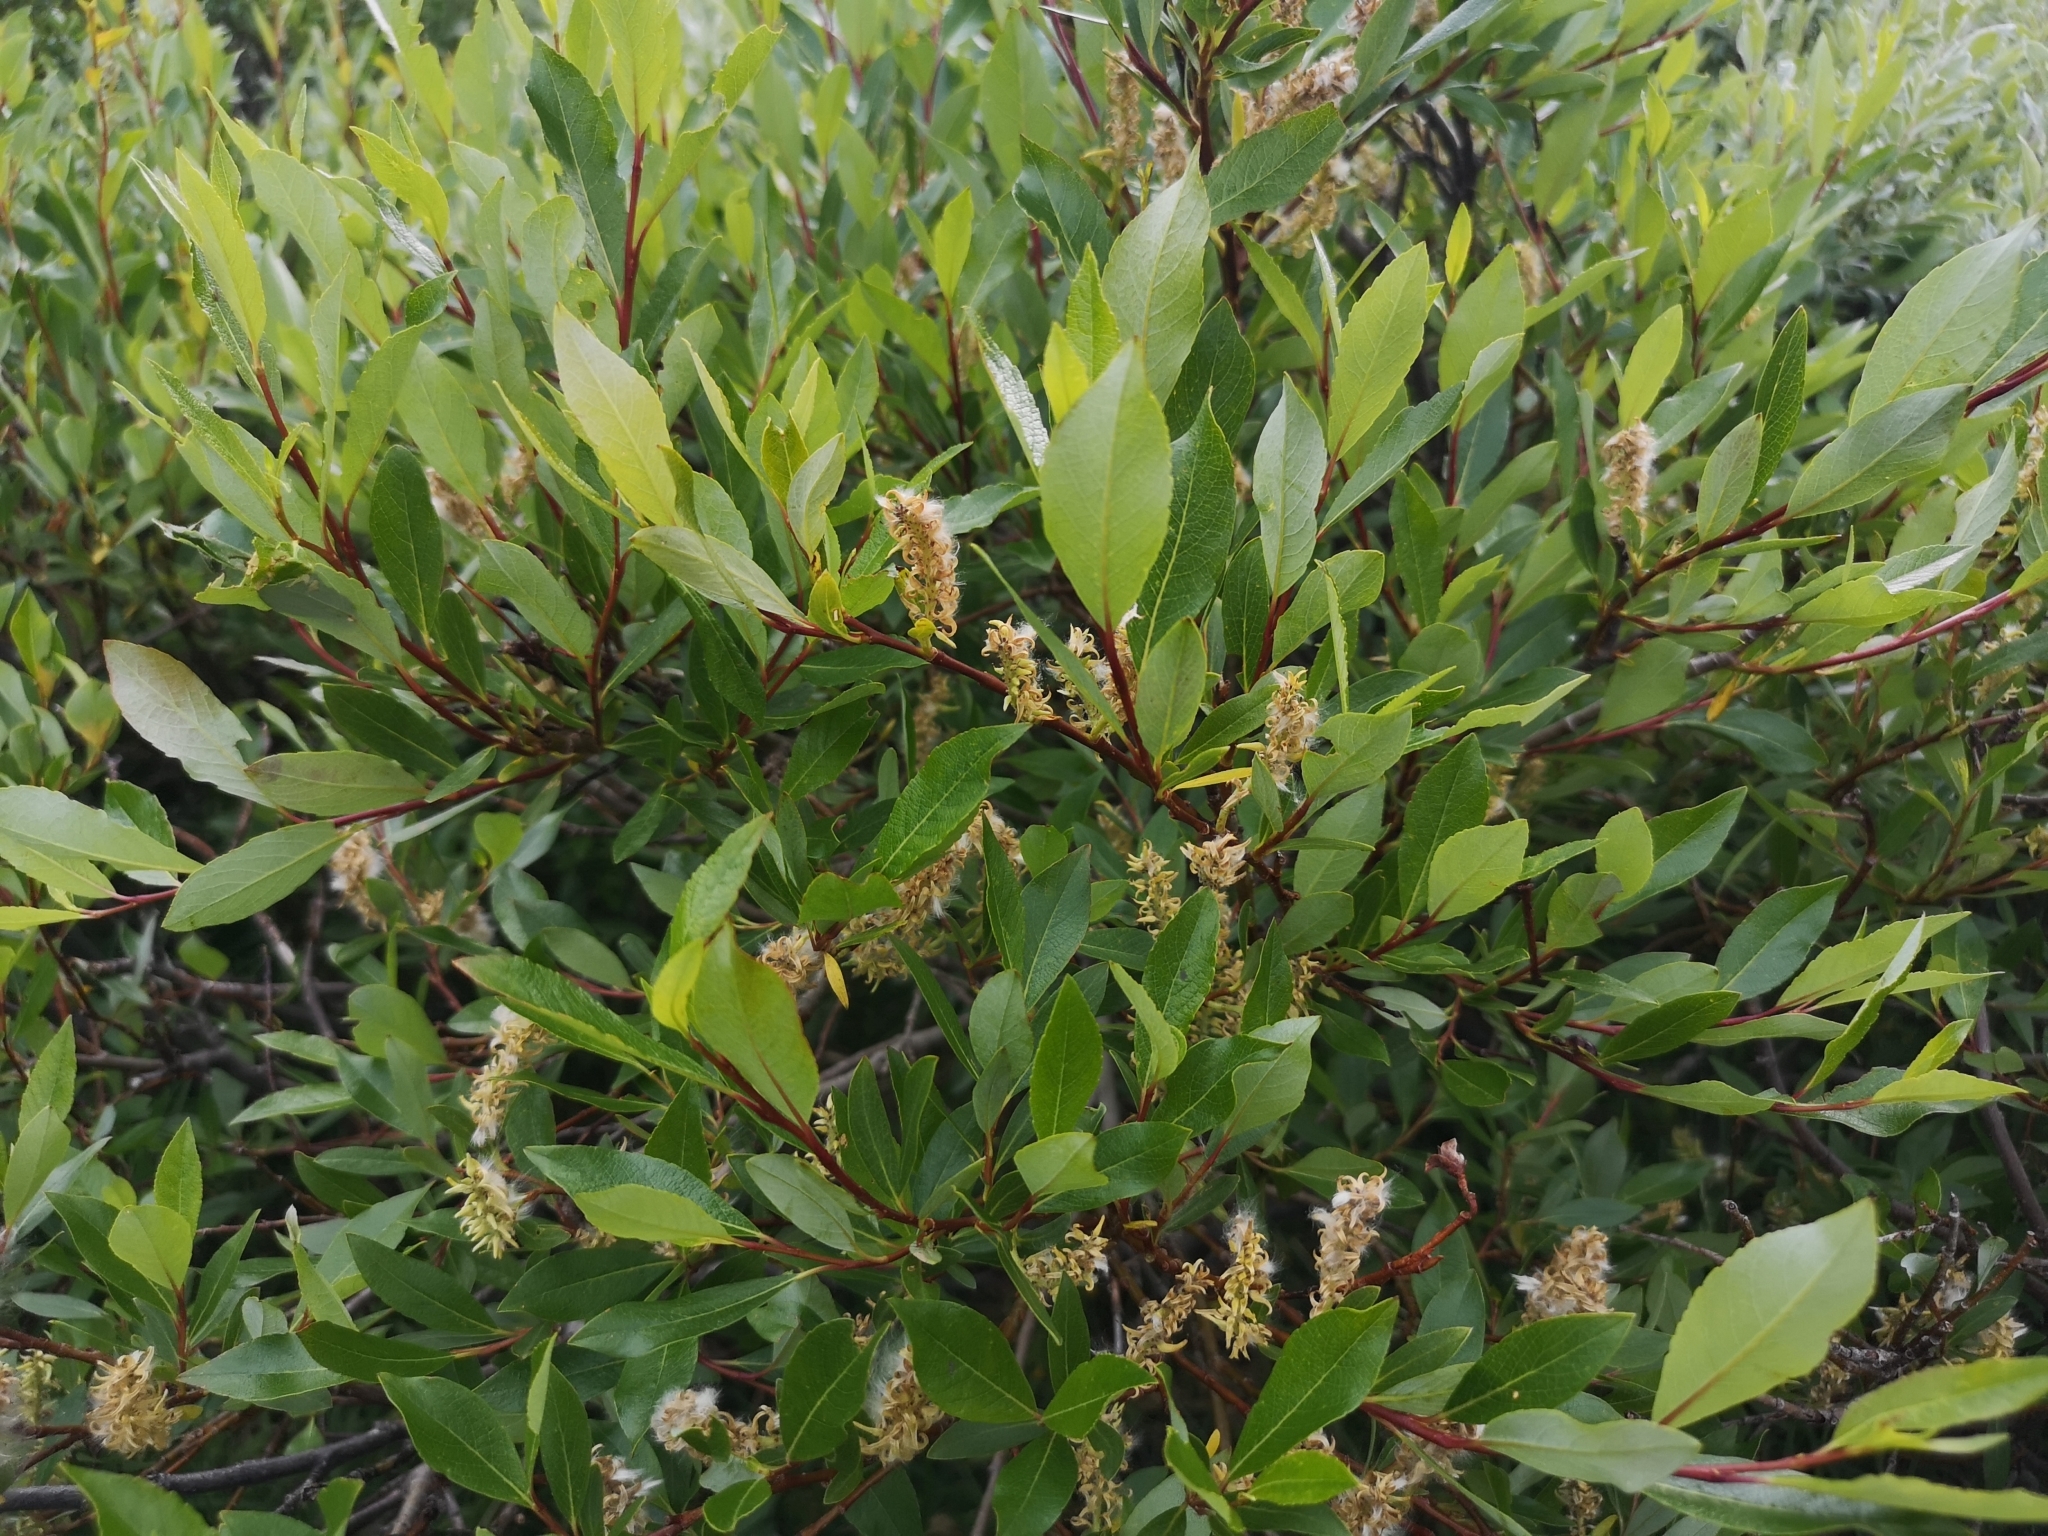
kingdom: Plantae
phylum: Tracheophyta
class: Magnoliopsida
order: Malpighiales
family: Salicaceae
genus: Salix
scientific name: Salix phylicifolia
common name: Tea-leaved willow
